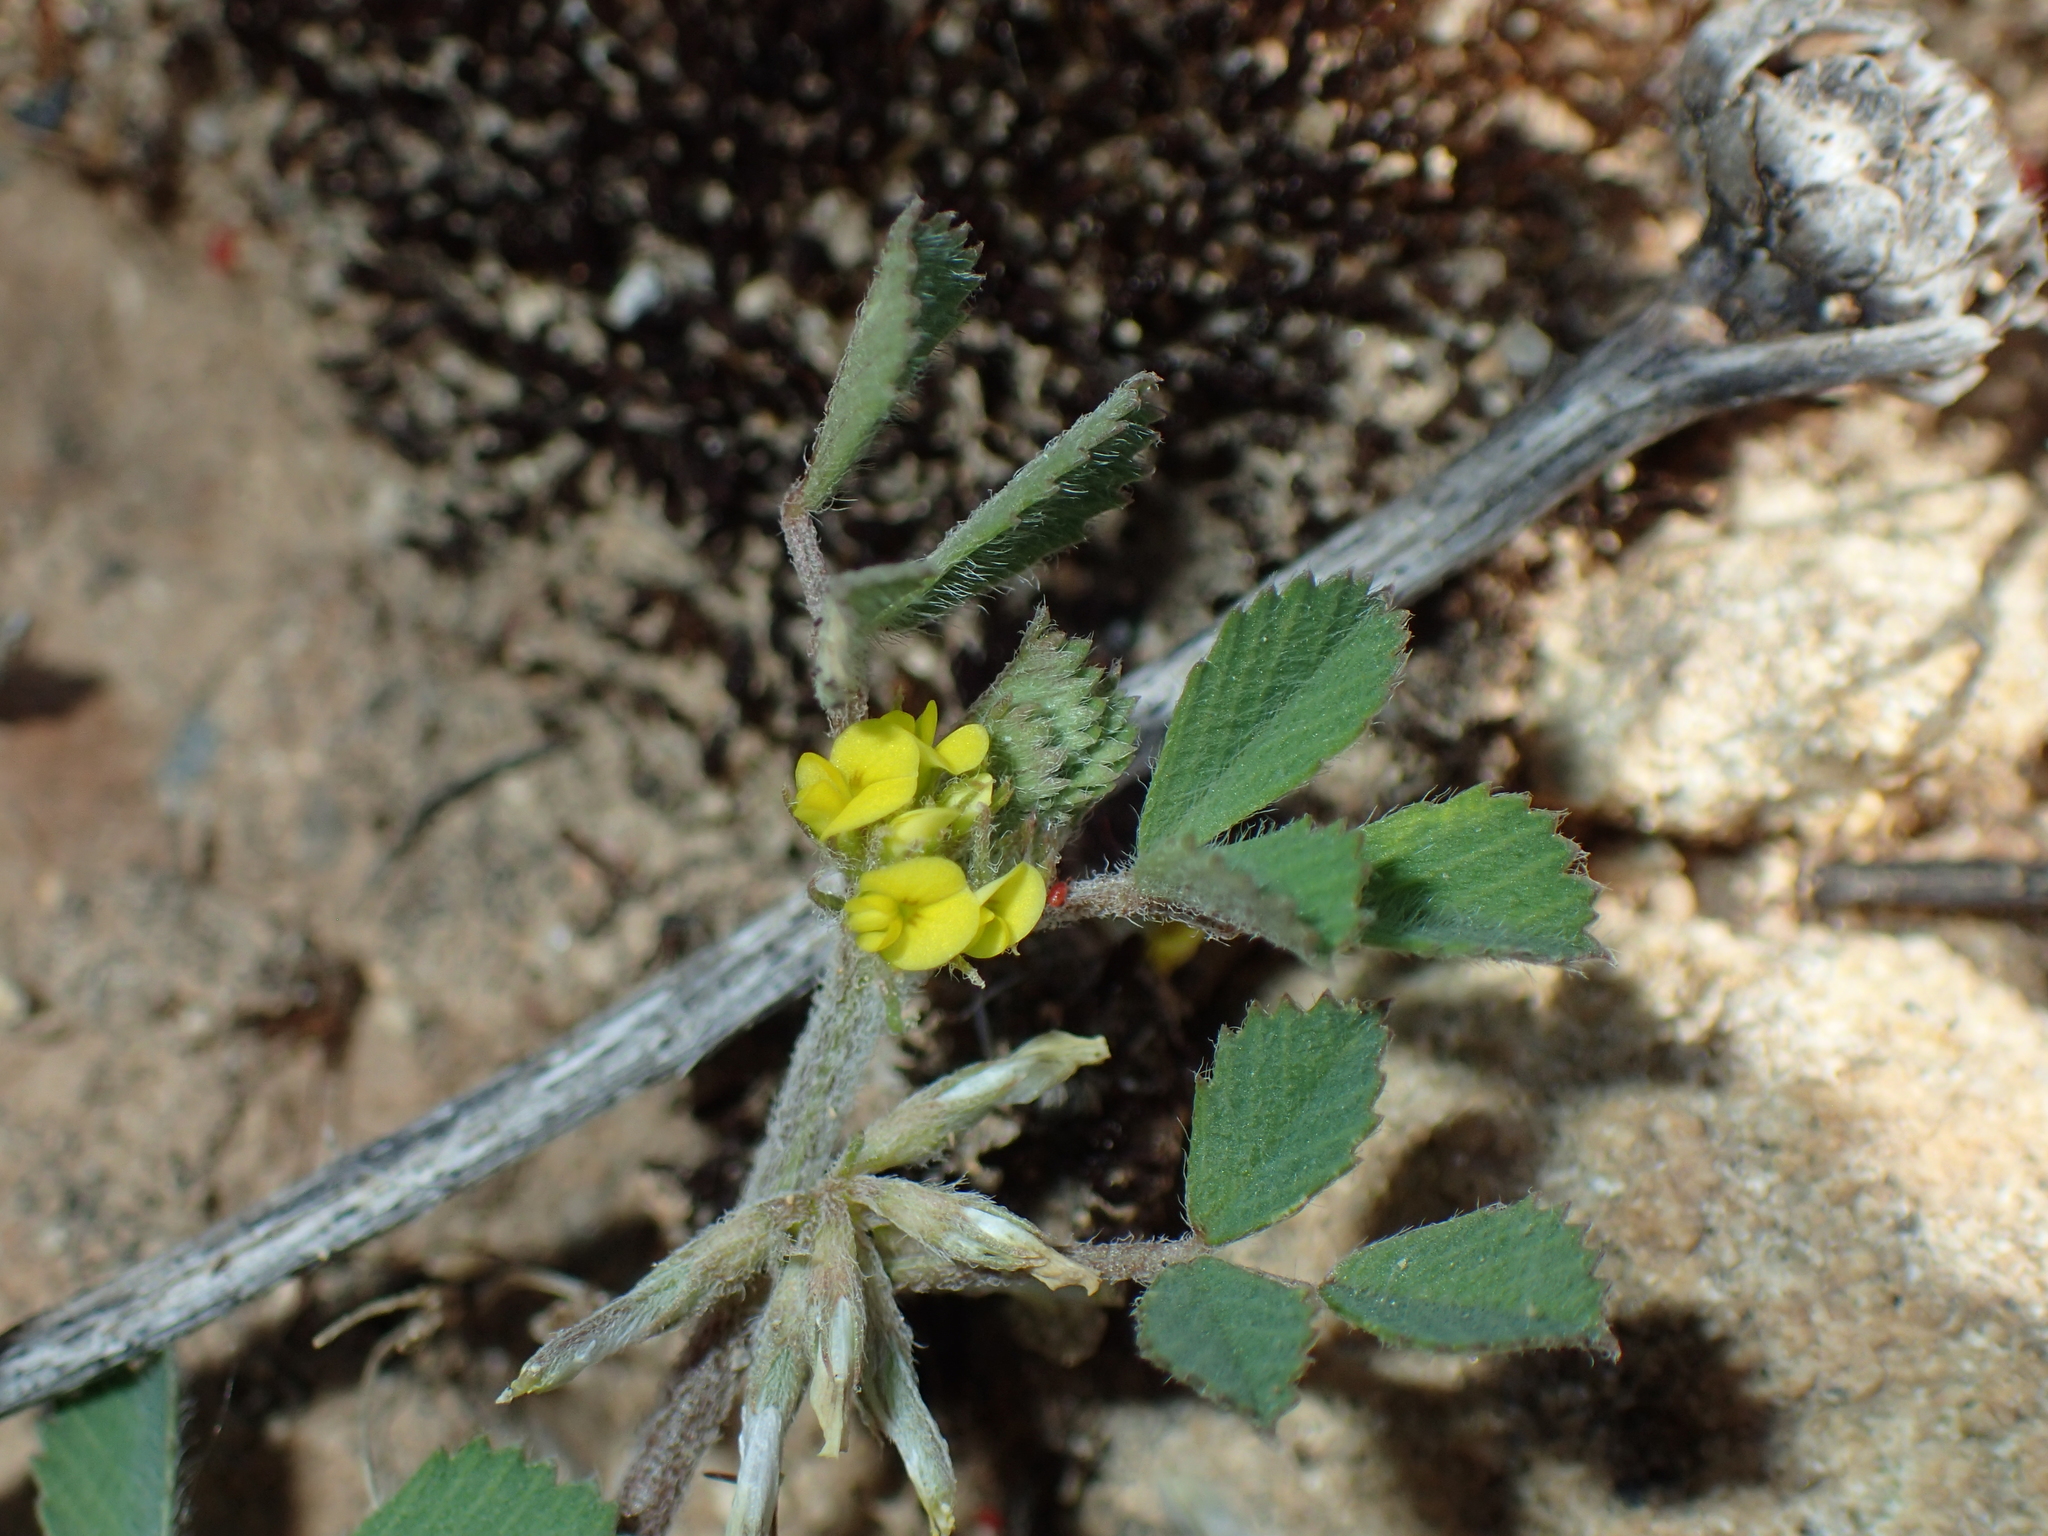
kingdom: Plantae
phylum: Tracheophyta
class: Magnoliopsida
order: Fabales
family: Fabaceae
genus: Medicago
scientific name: Medicago monspeliaca
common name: Hairy medick
